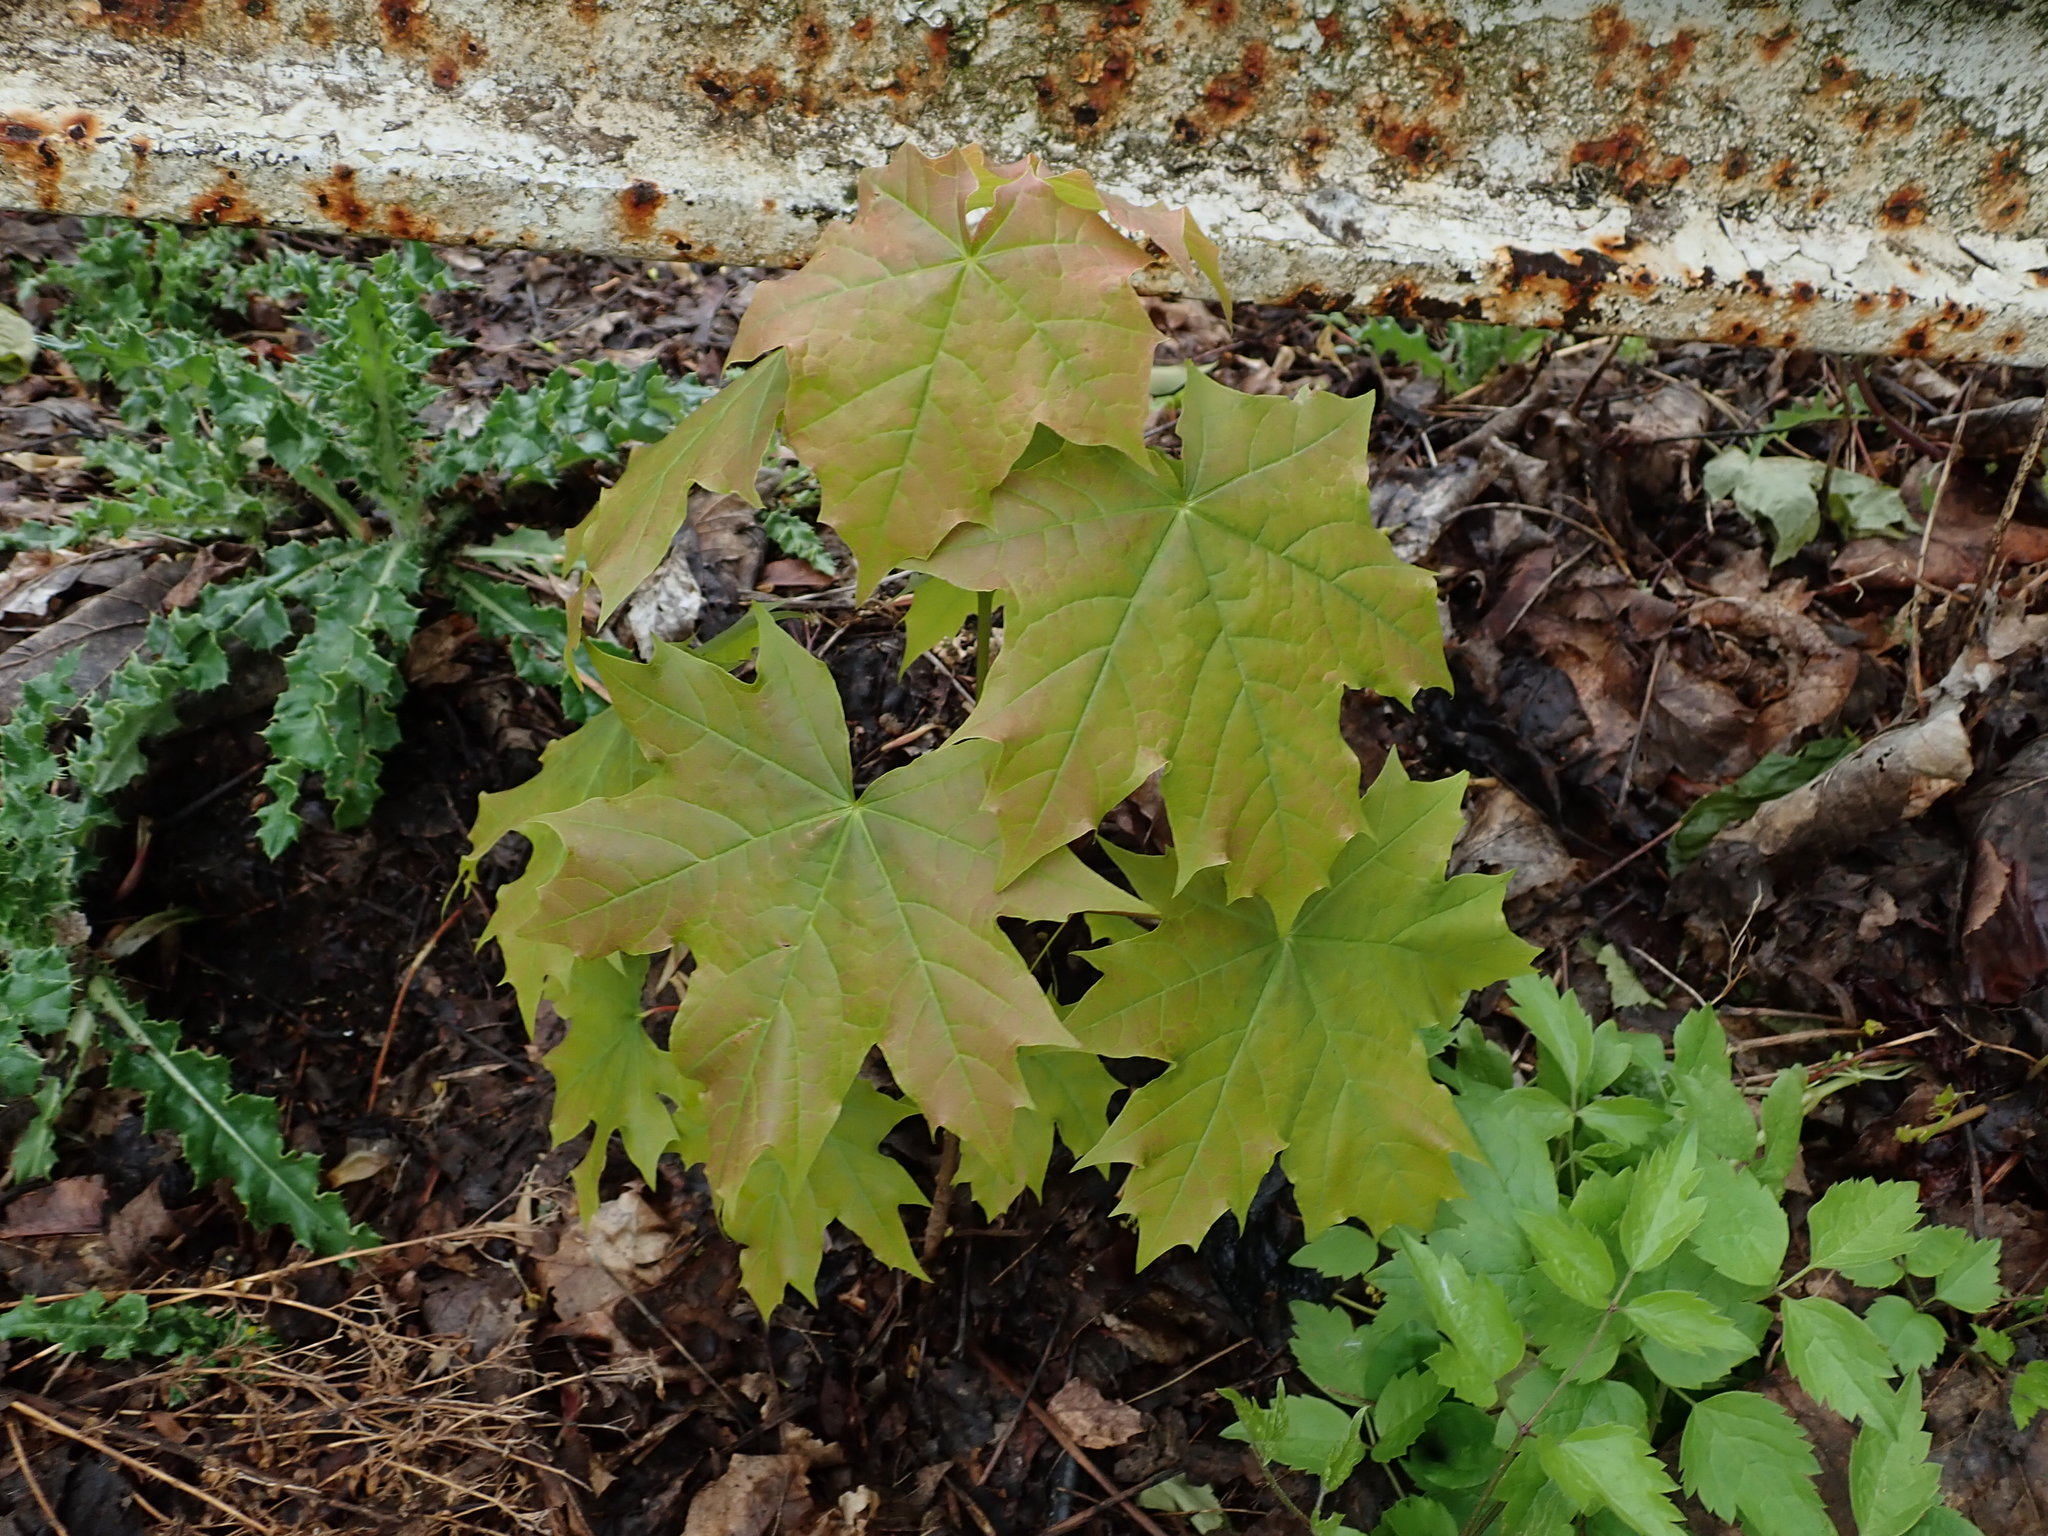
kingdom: Plantae
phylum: Tracheophyta
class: Magnoliopsida
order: Sapindales
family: Sapindaceae
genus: Acer
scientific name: Acer platanoides
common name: Norway maple
